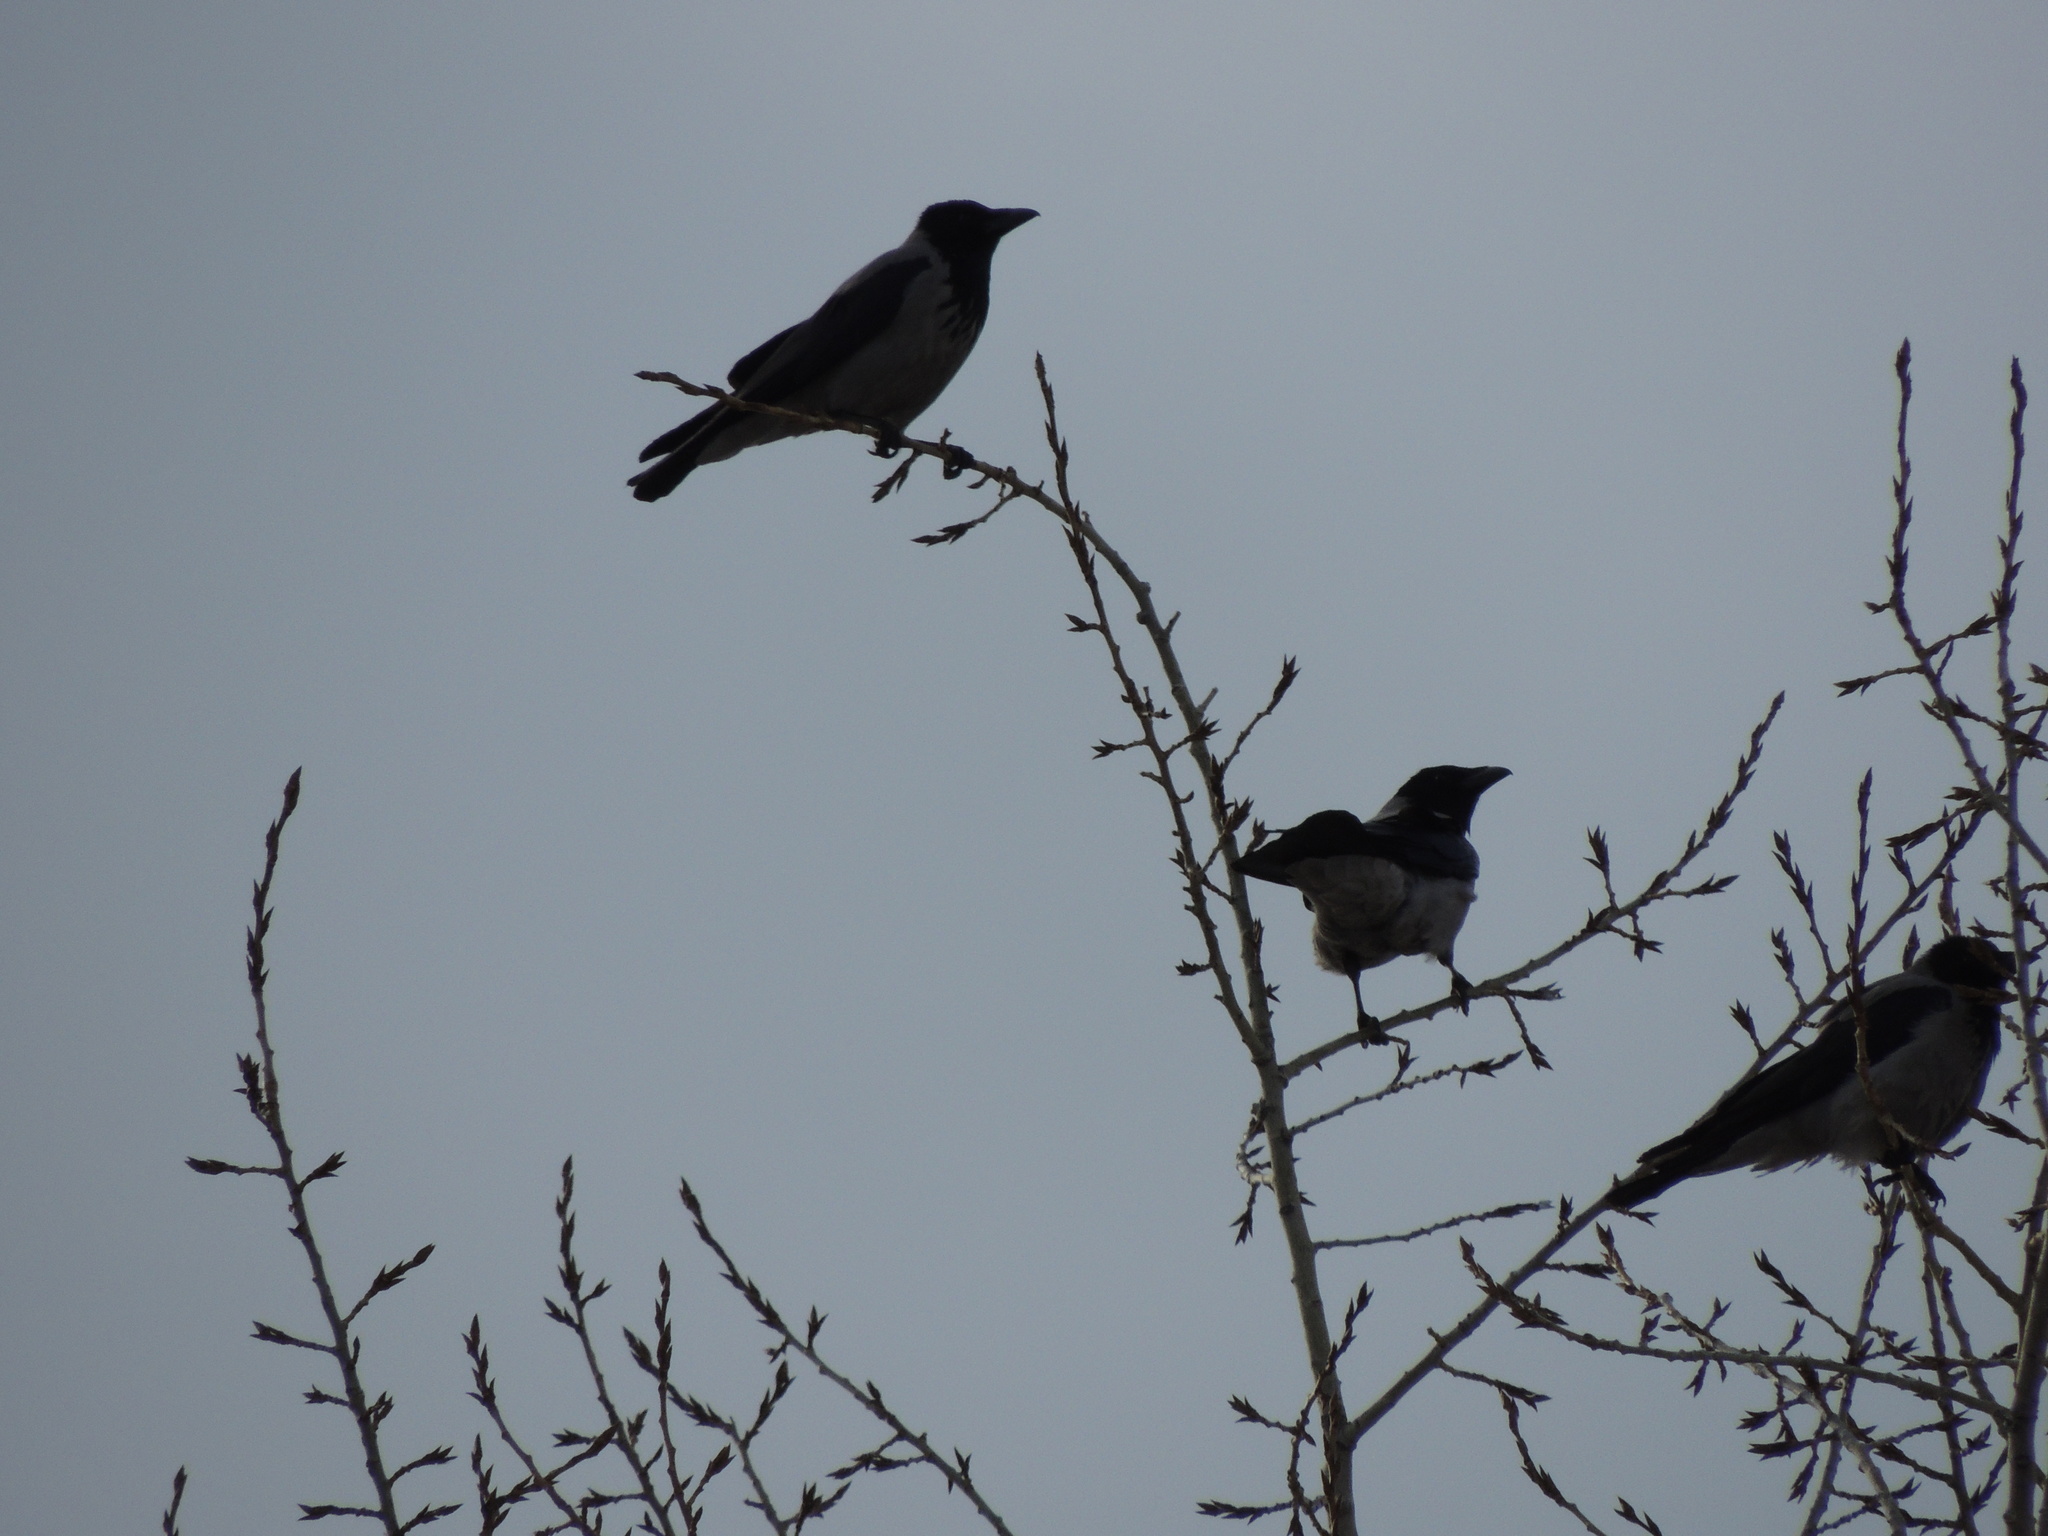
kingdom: Animalia
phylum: Chordata
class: Aves
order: Passeriformes
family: Corvidae
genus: Corvus
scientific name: Corvus cornix
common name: Hooded crow
